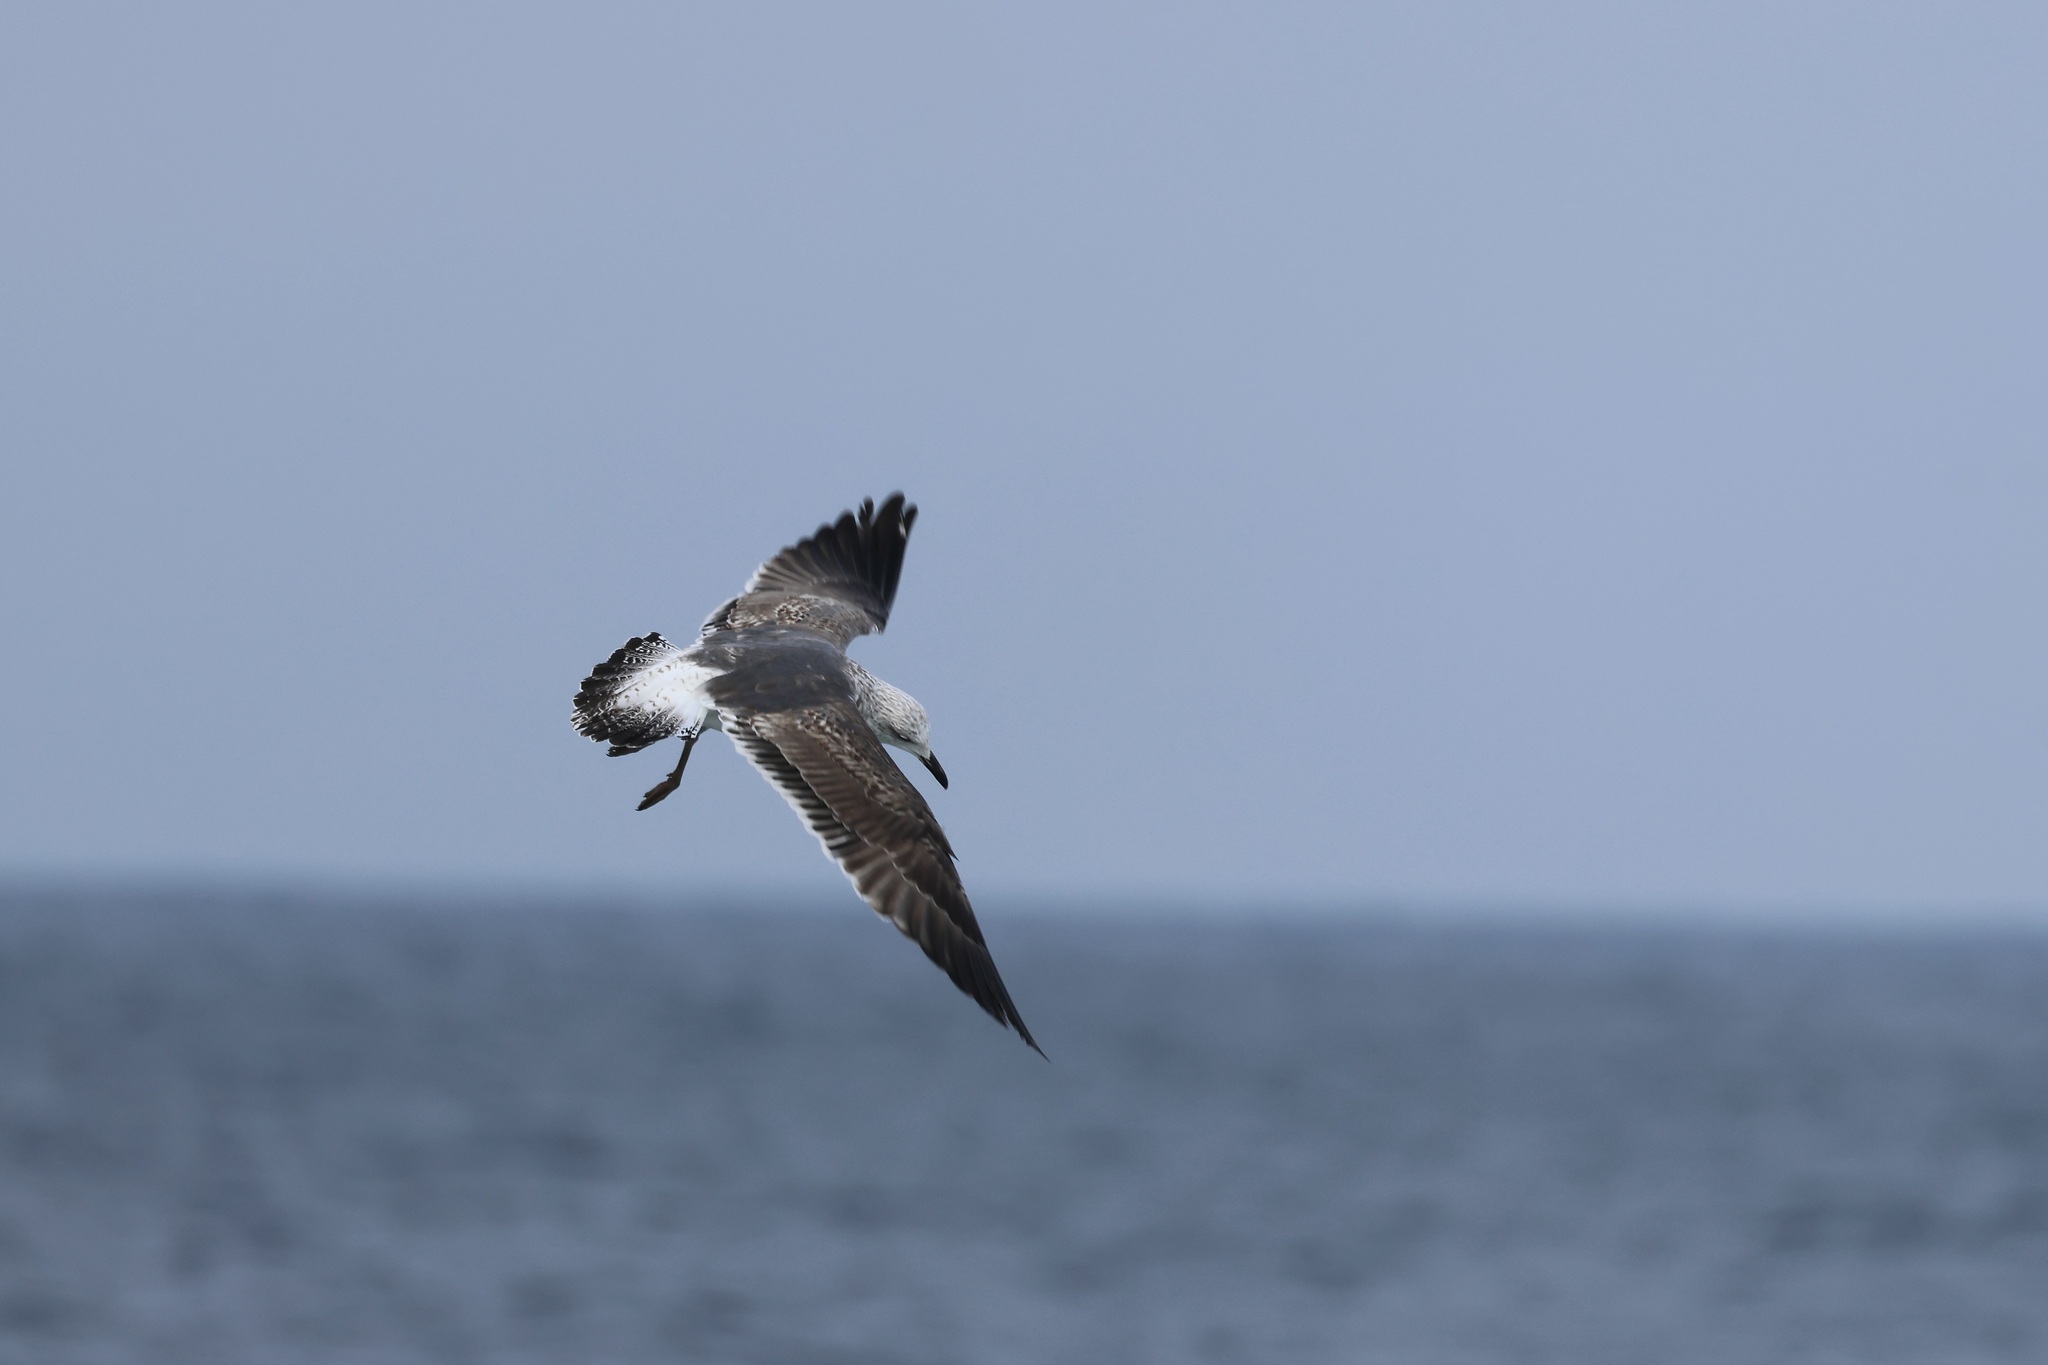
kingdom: Animalia
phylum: Chordata
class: Aves
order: Charadriiformes
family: Laridae
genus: Larus
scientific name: Larus fuscus
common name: Lesser black-backed gull
